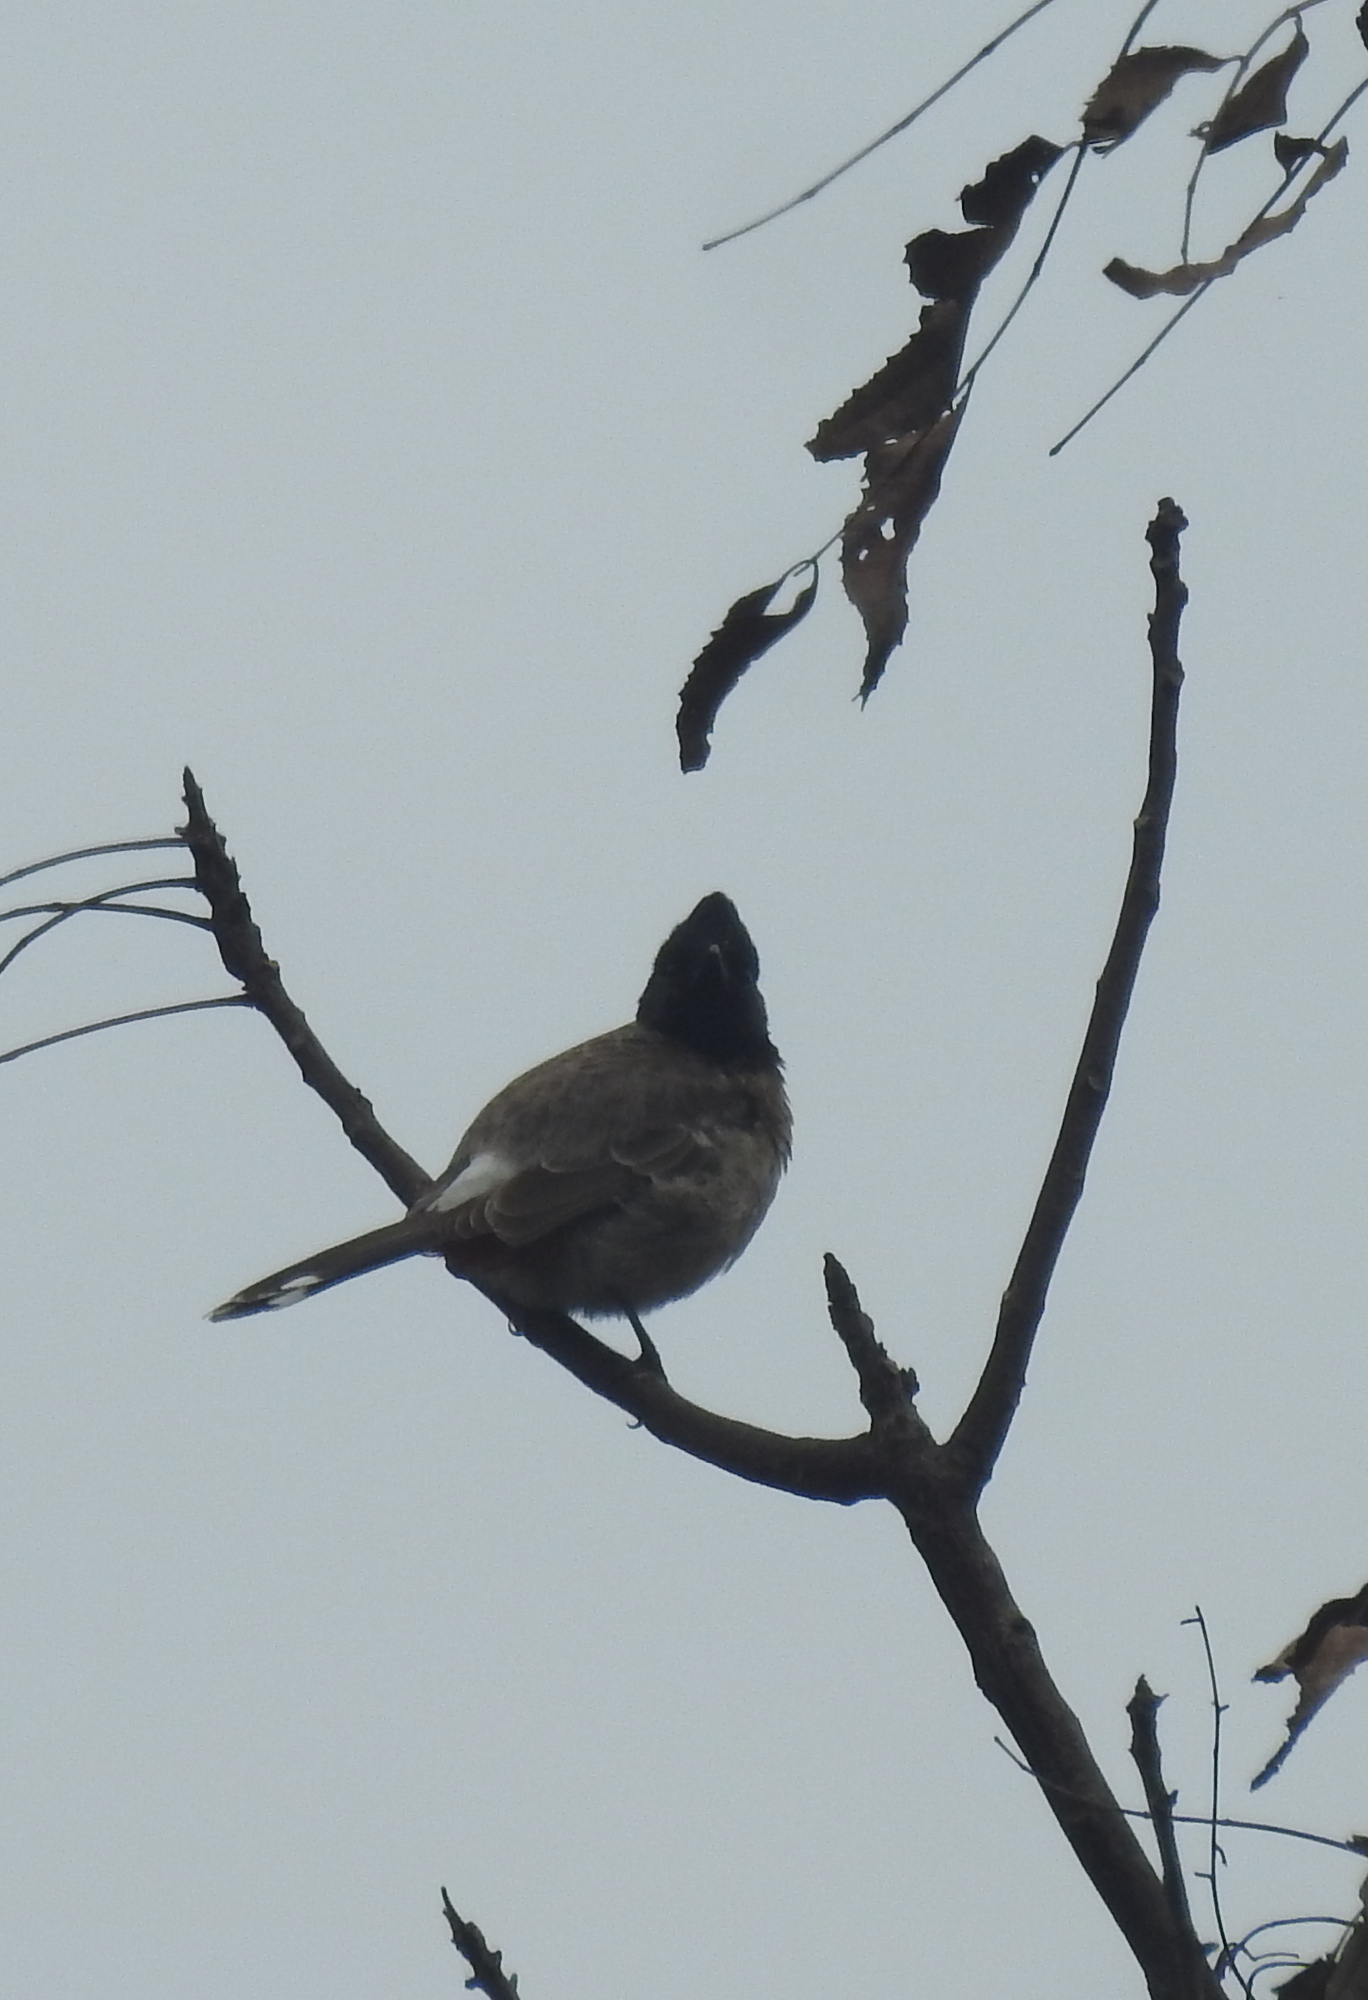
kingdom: Animalia
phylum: Chordata
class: Aves
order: Passeriformes
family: Pycnonotidae
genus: Pycnonotus
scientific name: Pycnonotus cafer
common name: Red-vented bulbul
